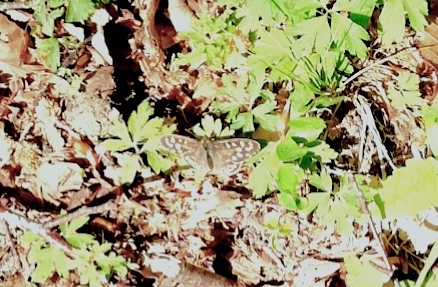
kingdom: Animalia
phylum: Arthropoda
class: Insecta
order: Lepidoptera
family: Nymphalidae
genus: Pararge
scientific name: Pararge aegeria
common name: Speckled wood
